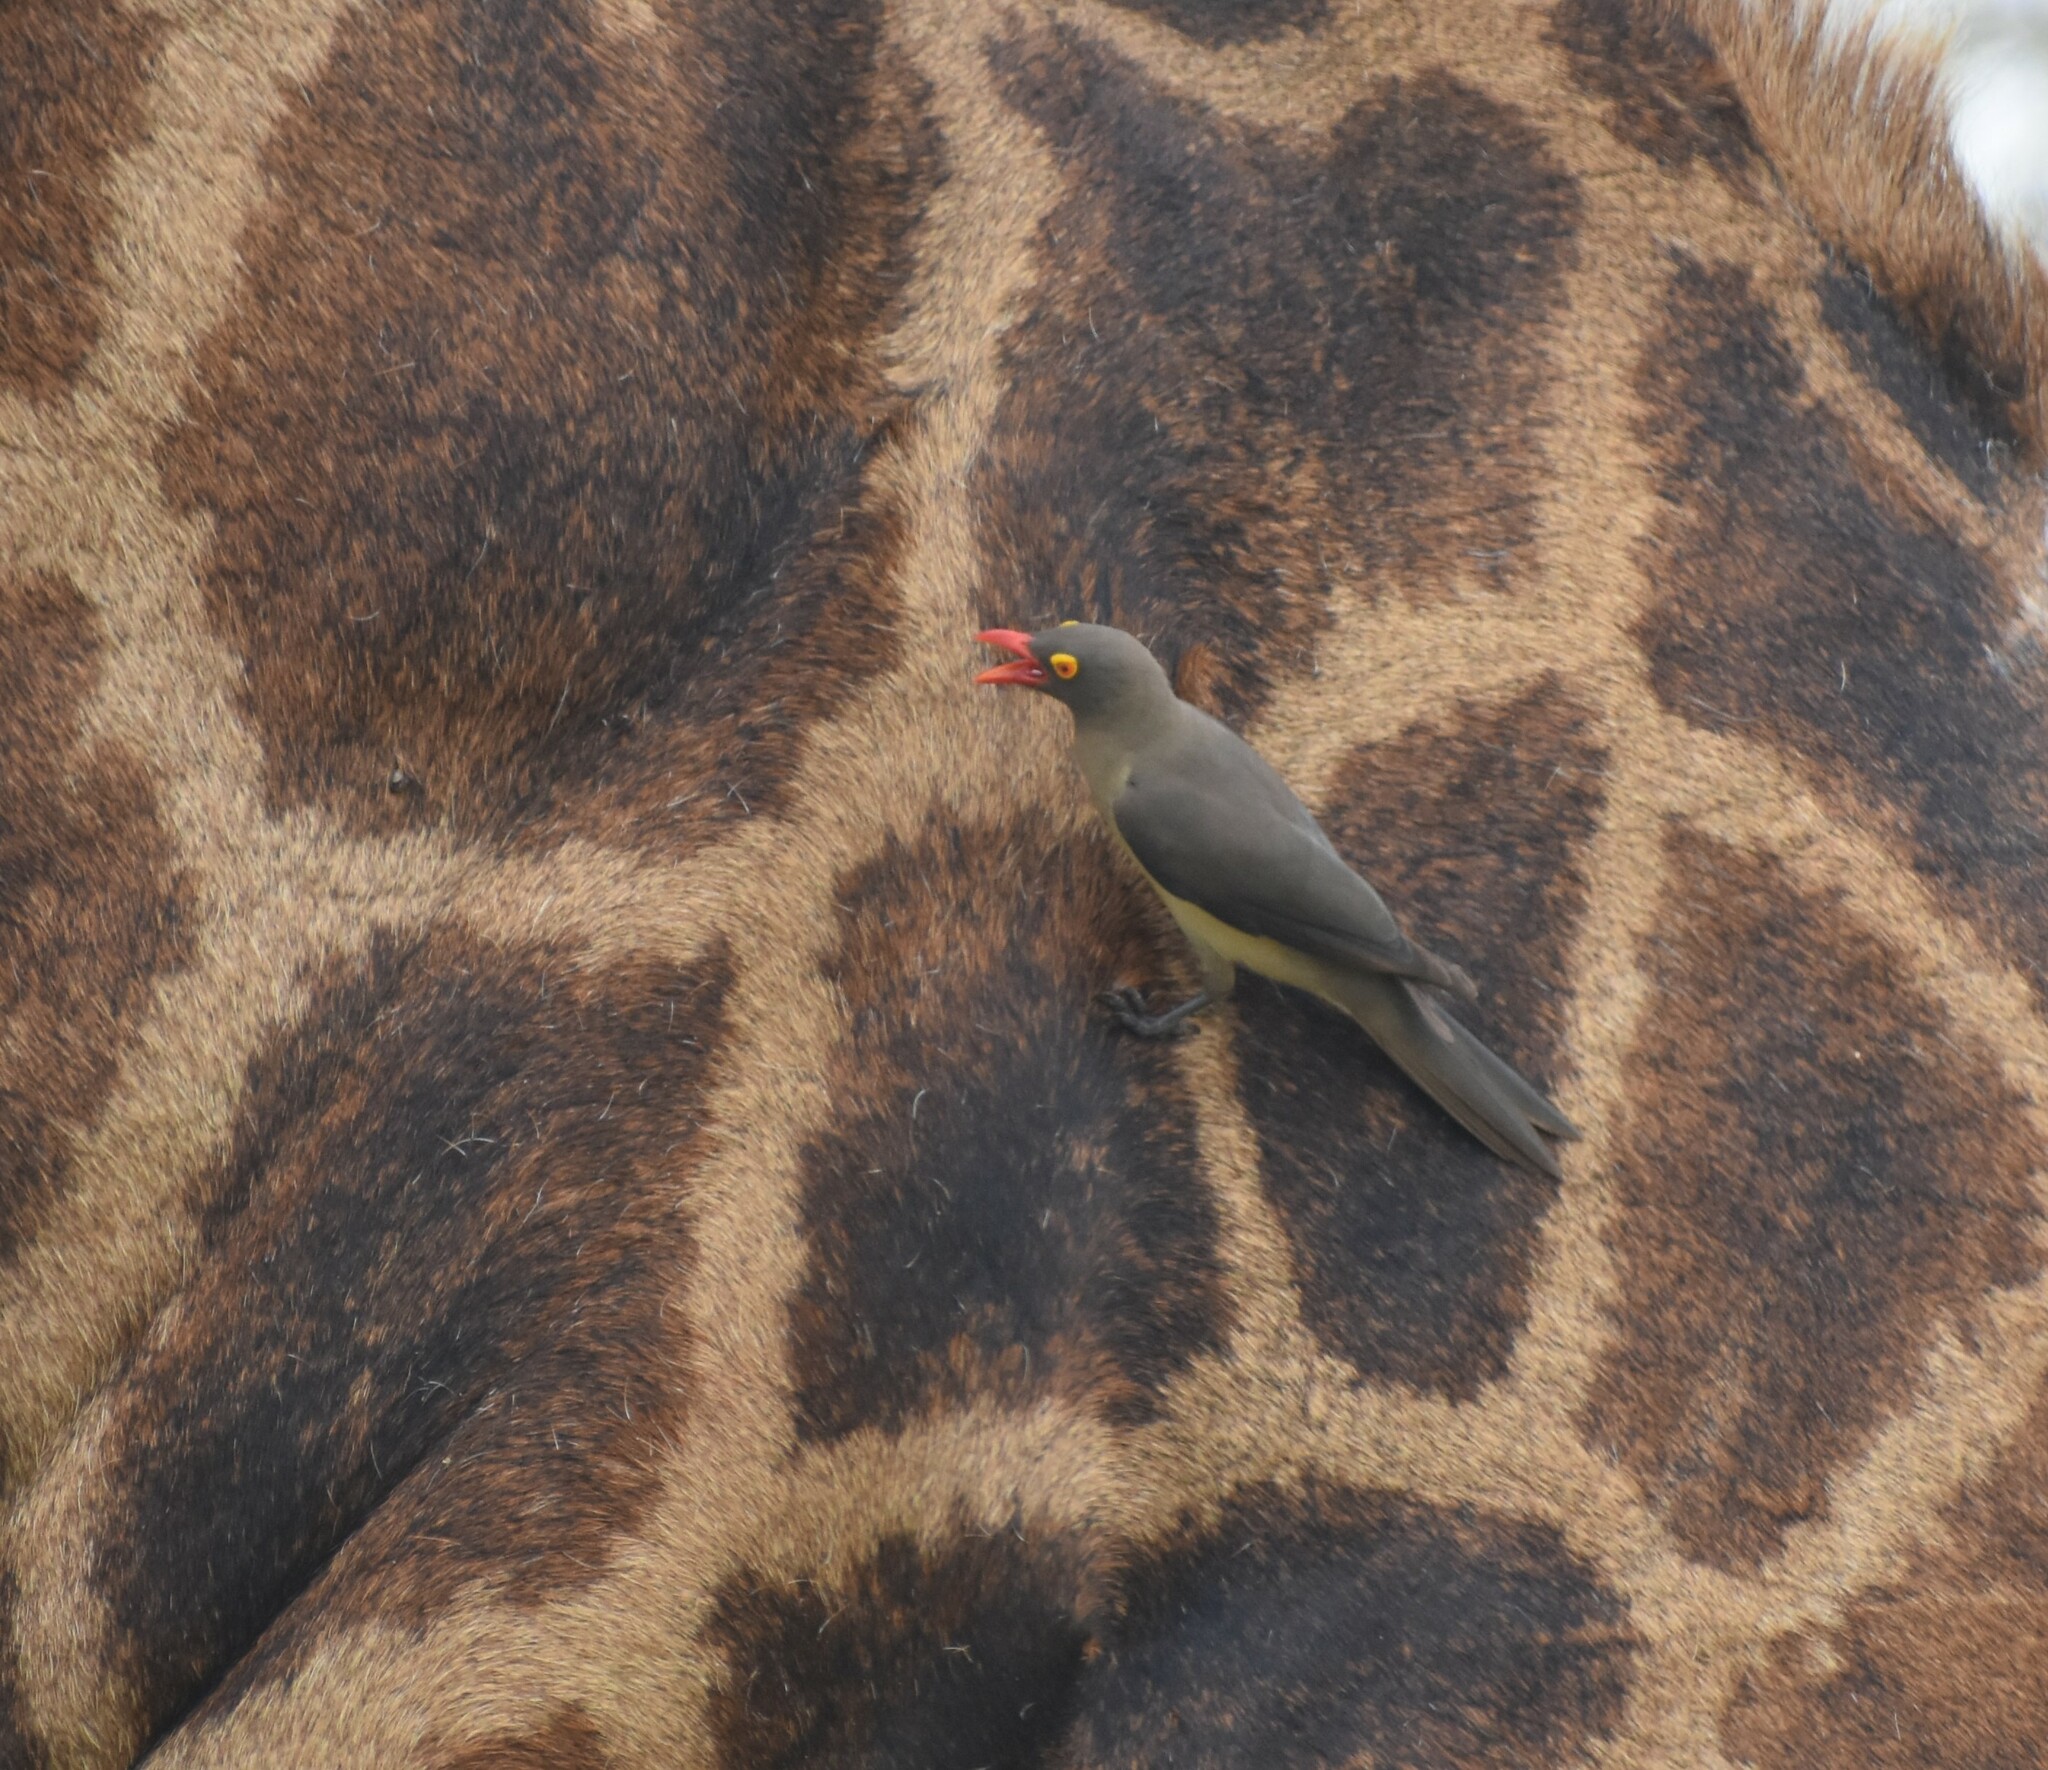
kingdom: Animalia
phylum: Chordata
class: Aves
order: Passeriformes
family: Buphagidae
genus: Buphagus
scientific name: Buphagus erythrorhynchus
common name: Red-billed oxpecker
